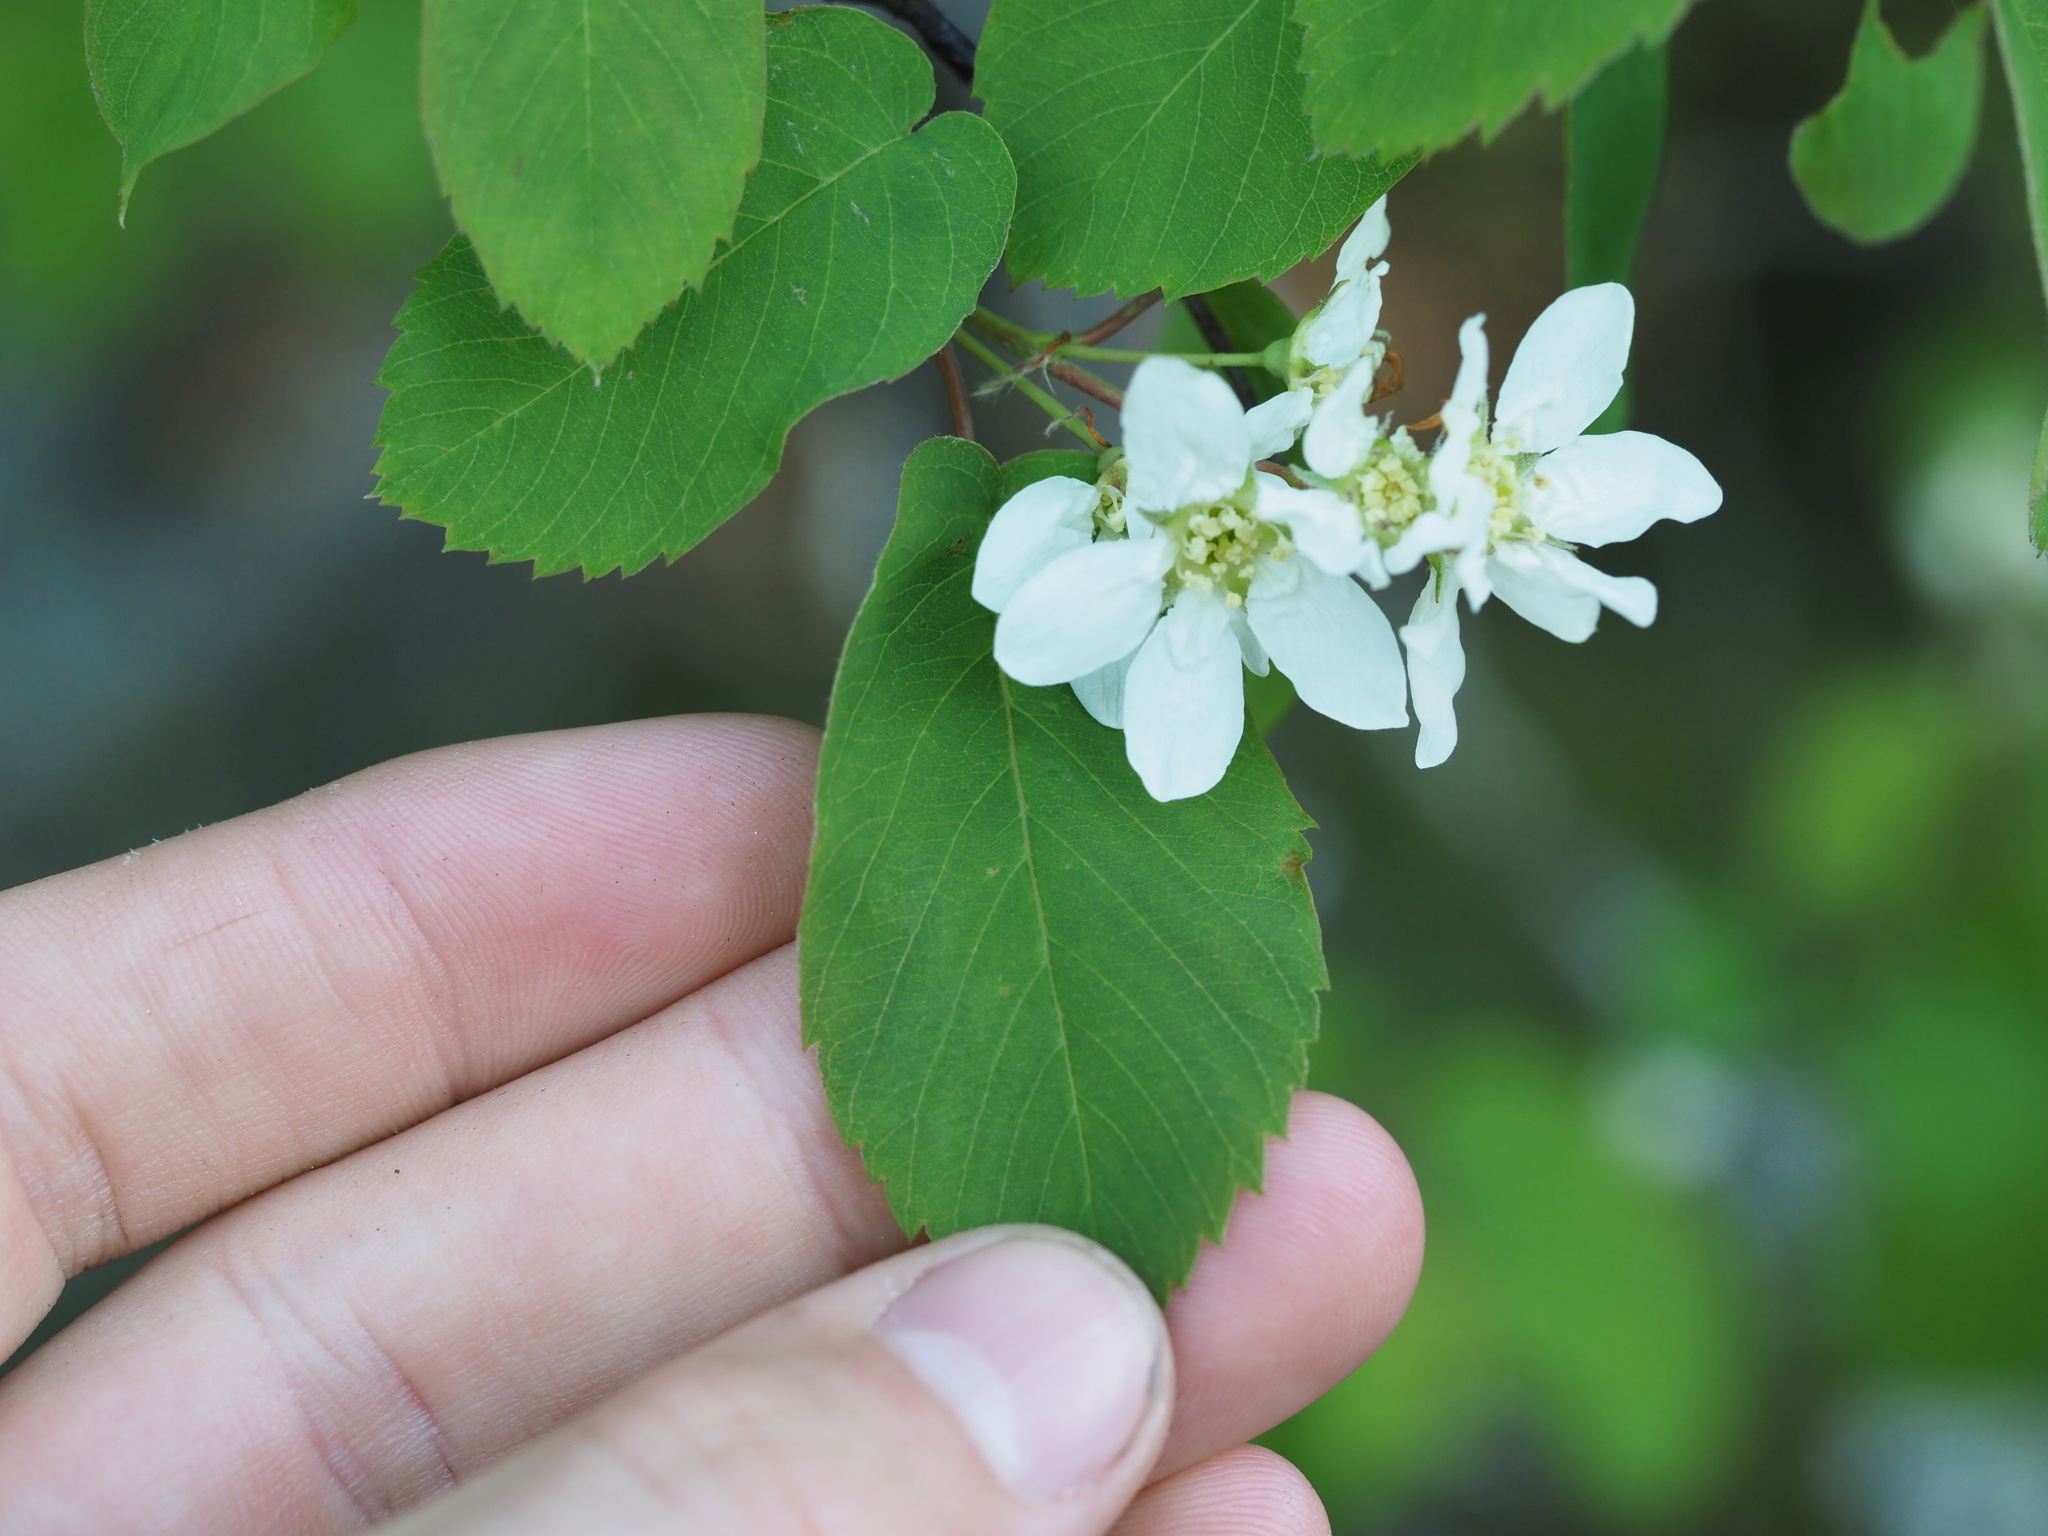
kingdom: Plantae
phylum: Tracheophyta
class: Magnoliopsida
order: Rosales
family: Rosaceae
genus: Amelanchier
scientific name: Amelanchier alnifolia
